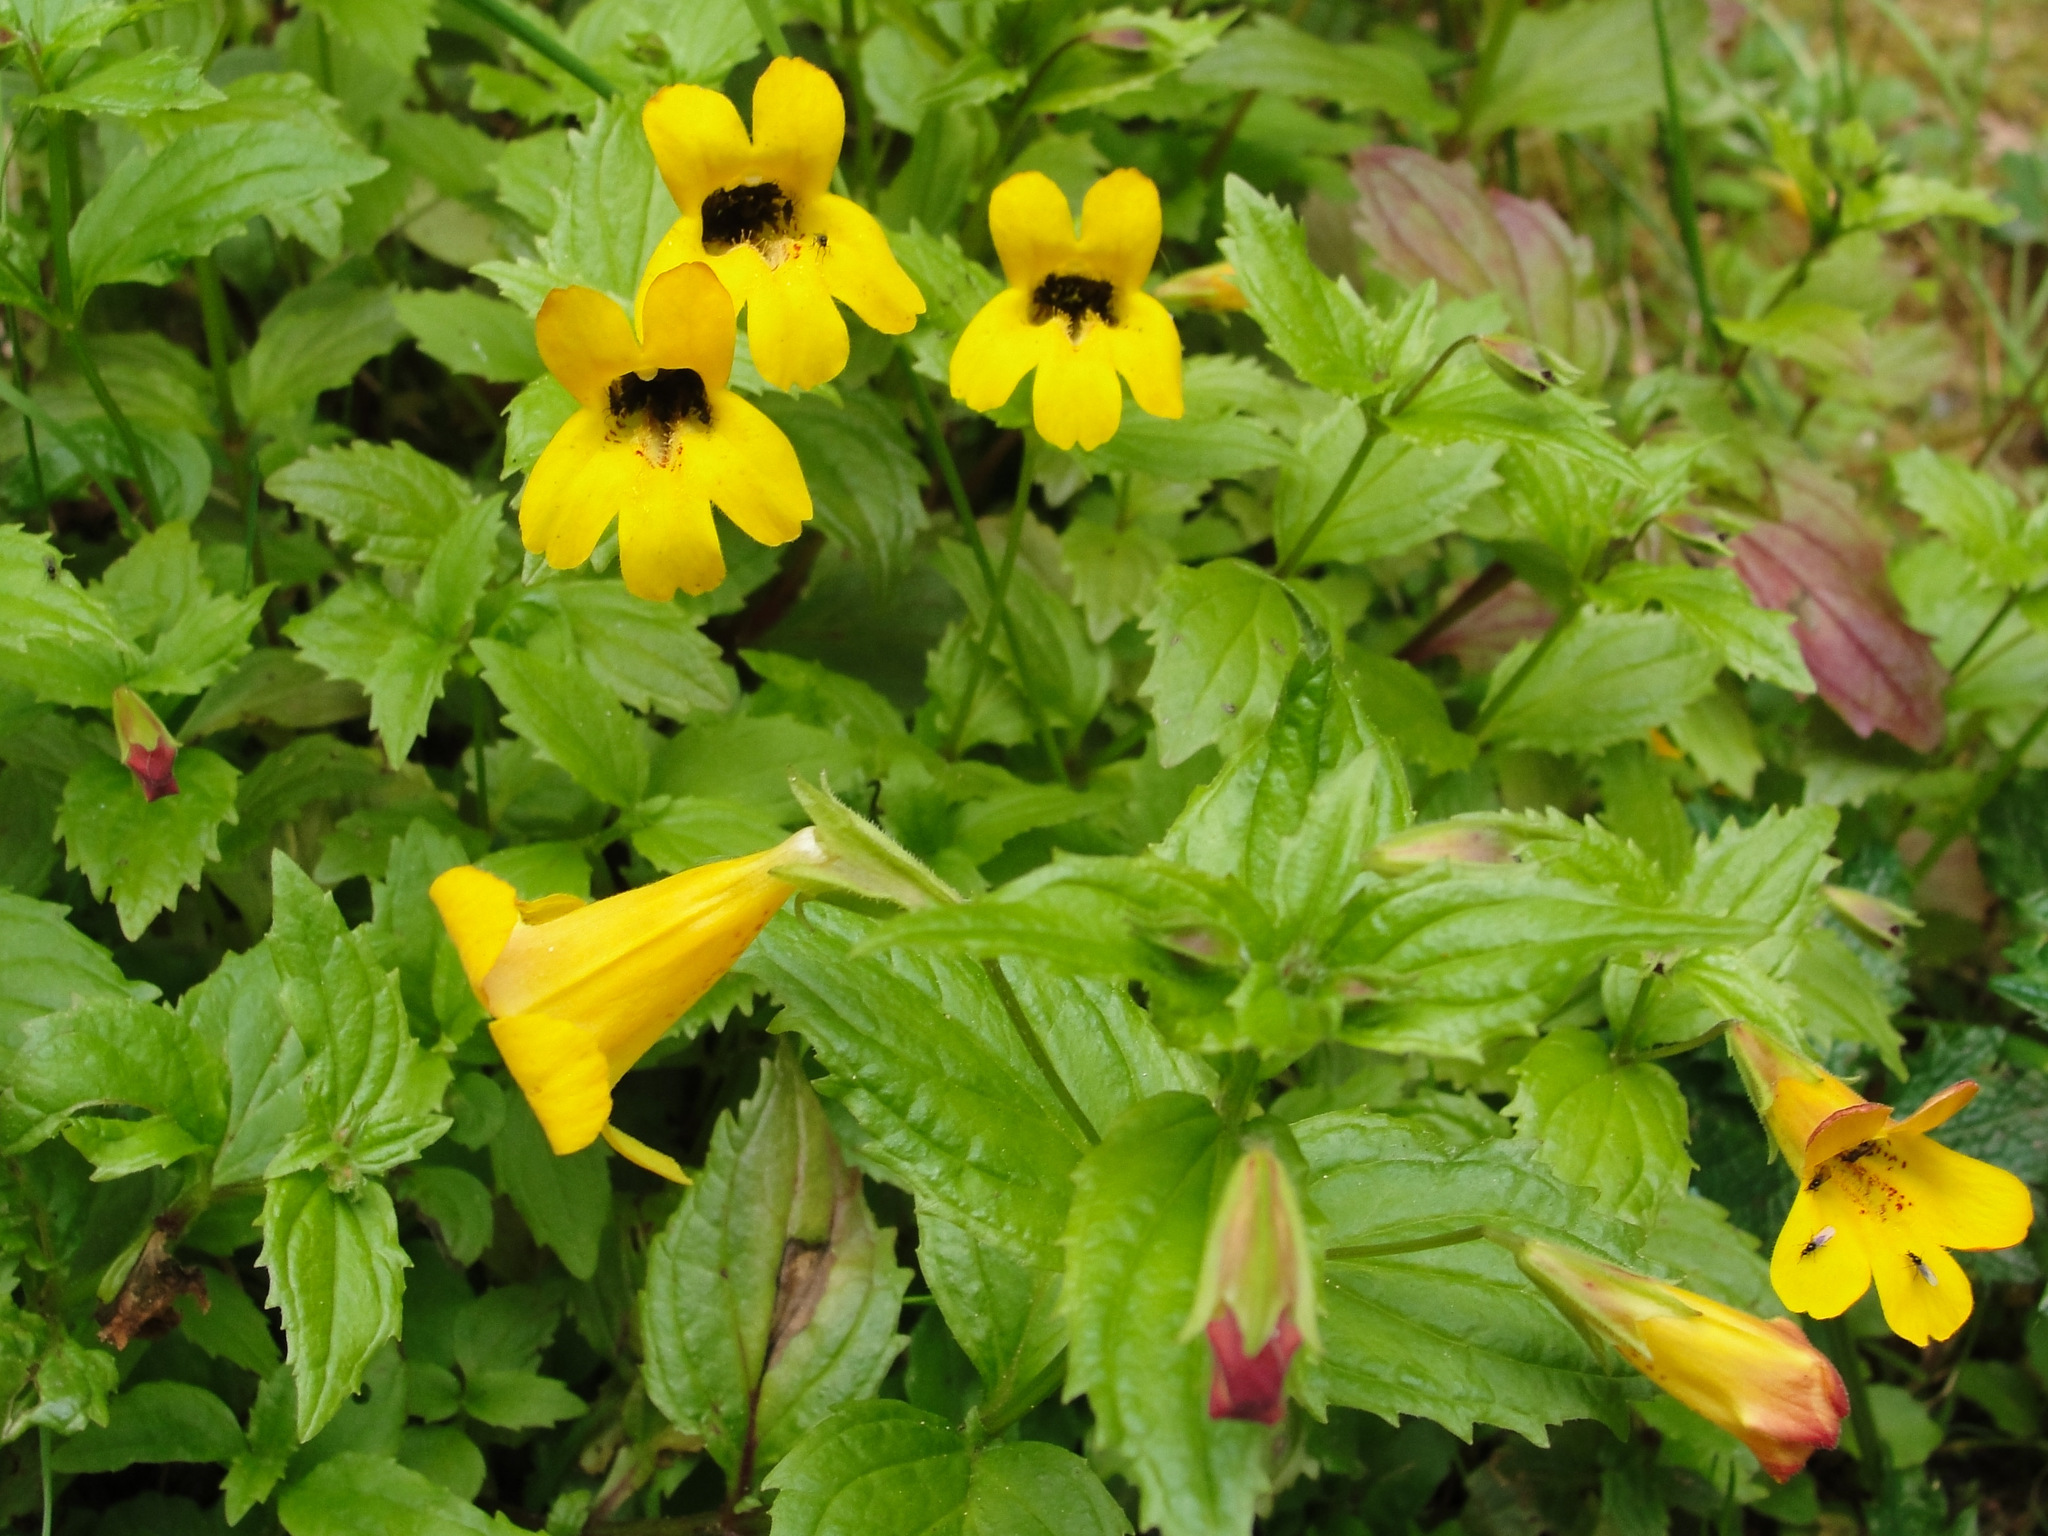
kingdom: Plantae
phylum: Tracheophyta
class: Magnoliopsida
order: Lamiales
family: Phrymaceae
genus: Erythranthe
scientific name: Erythranthe dentata
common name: Coastal monkeyflower
